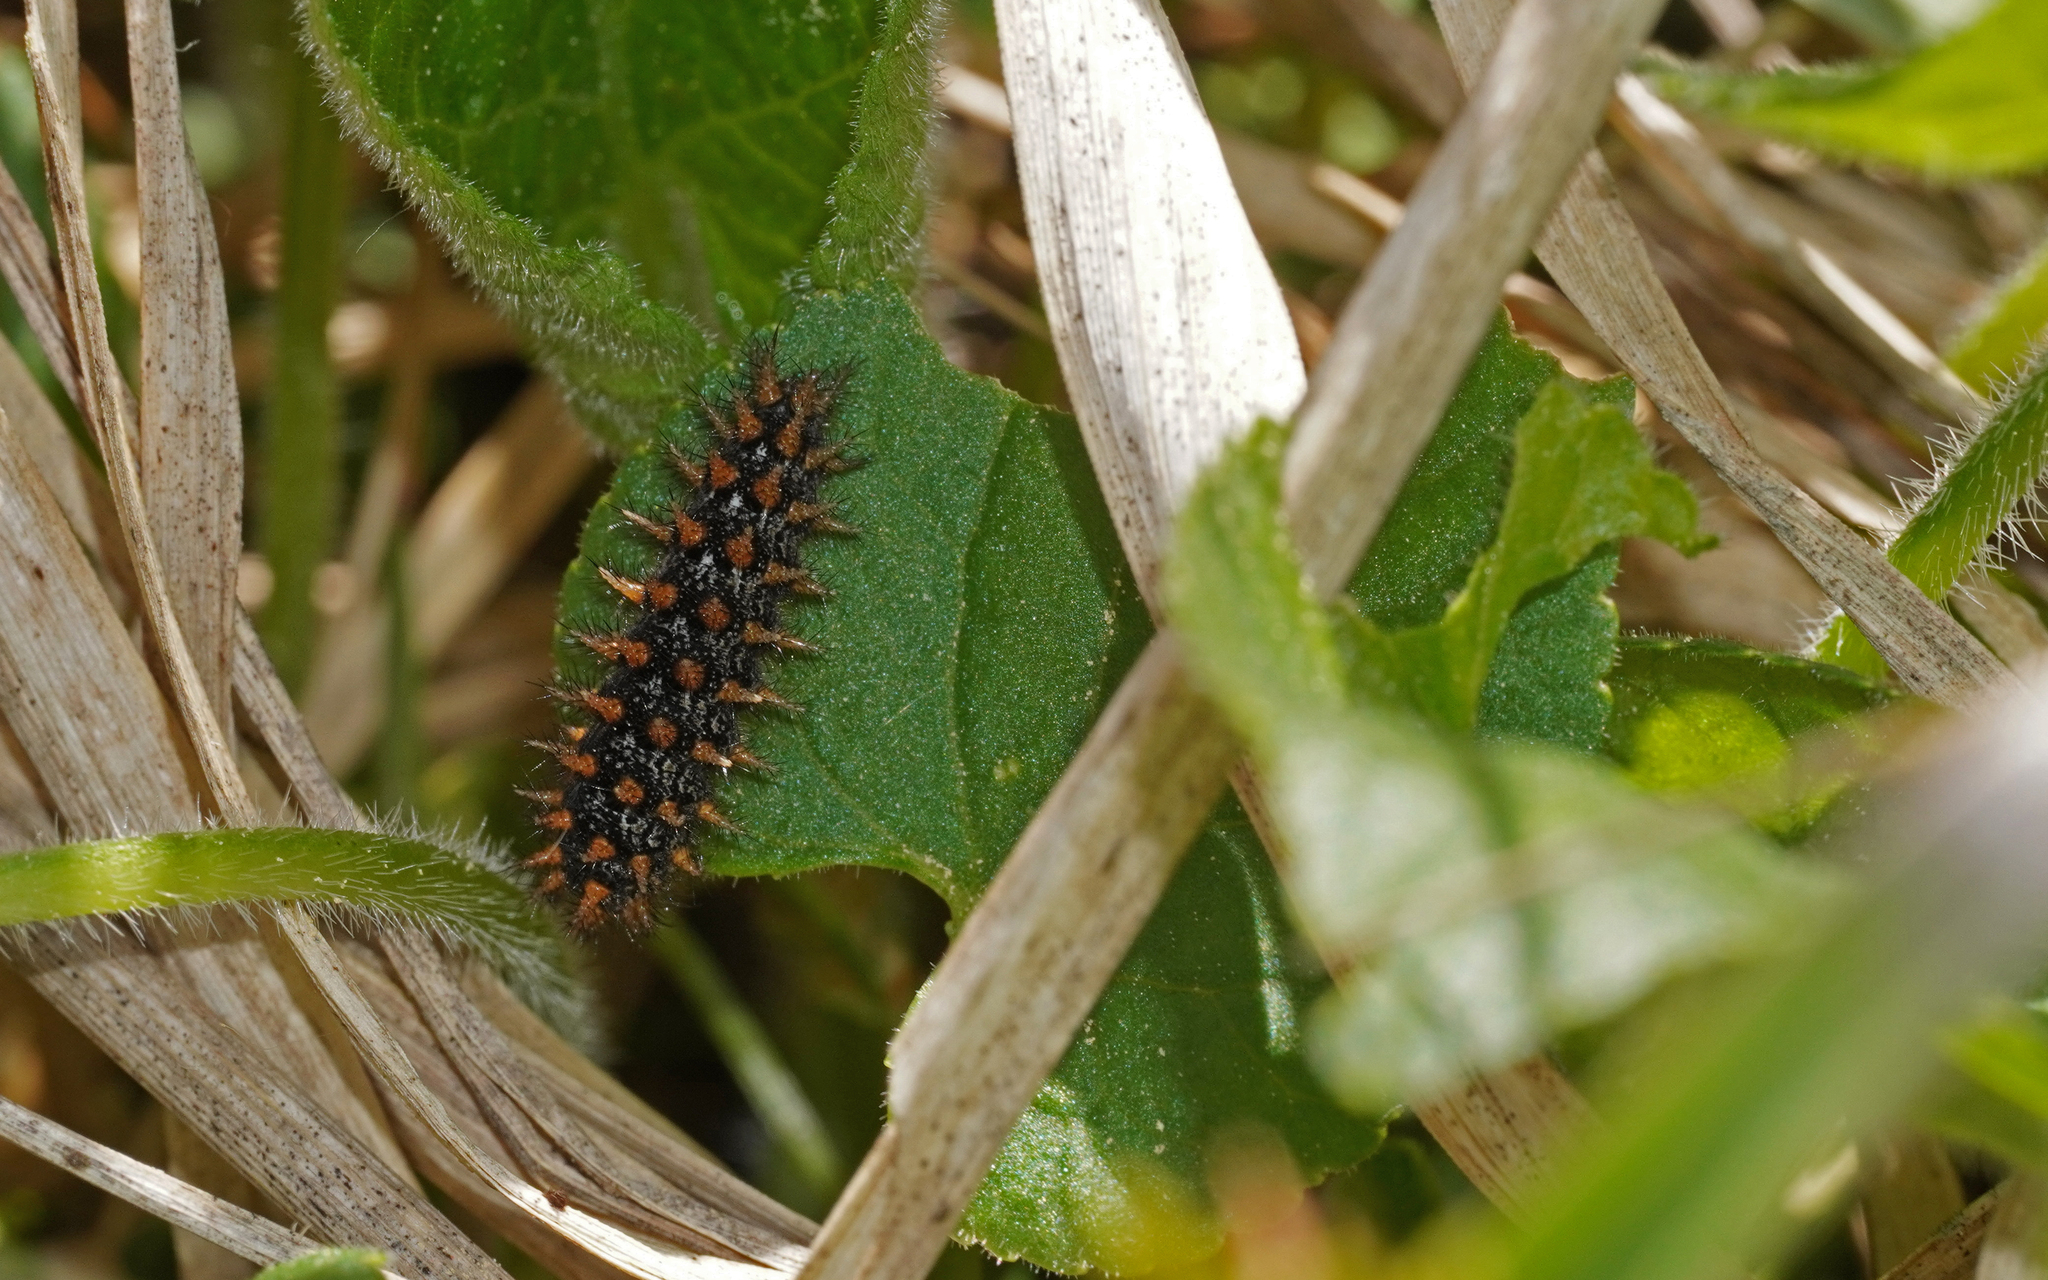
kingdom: Animalia
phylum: Arthropoda
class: Insecta
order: Lepidoptera
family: Nymphalidae
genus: Fabriciana
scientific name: Fabriciana adippe
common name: High brown fritillary
